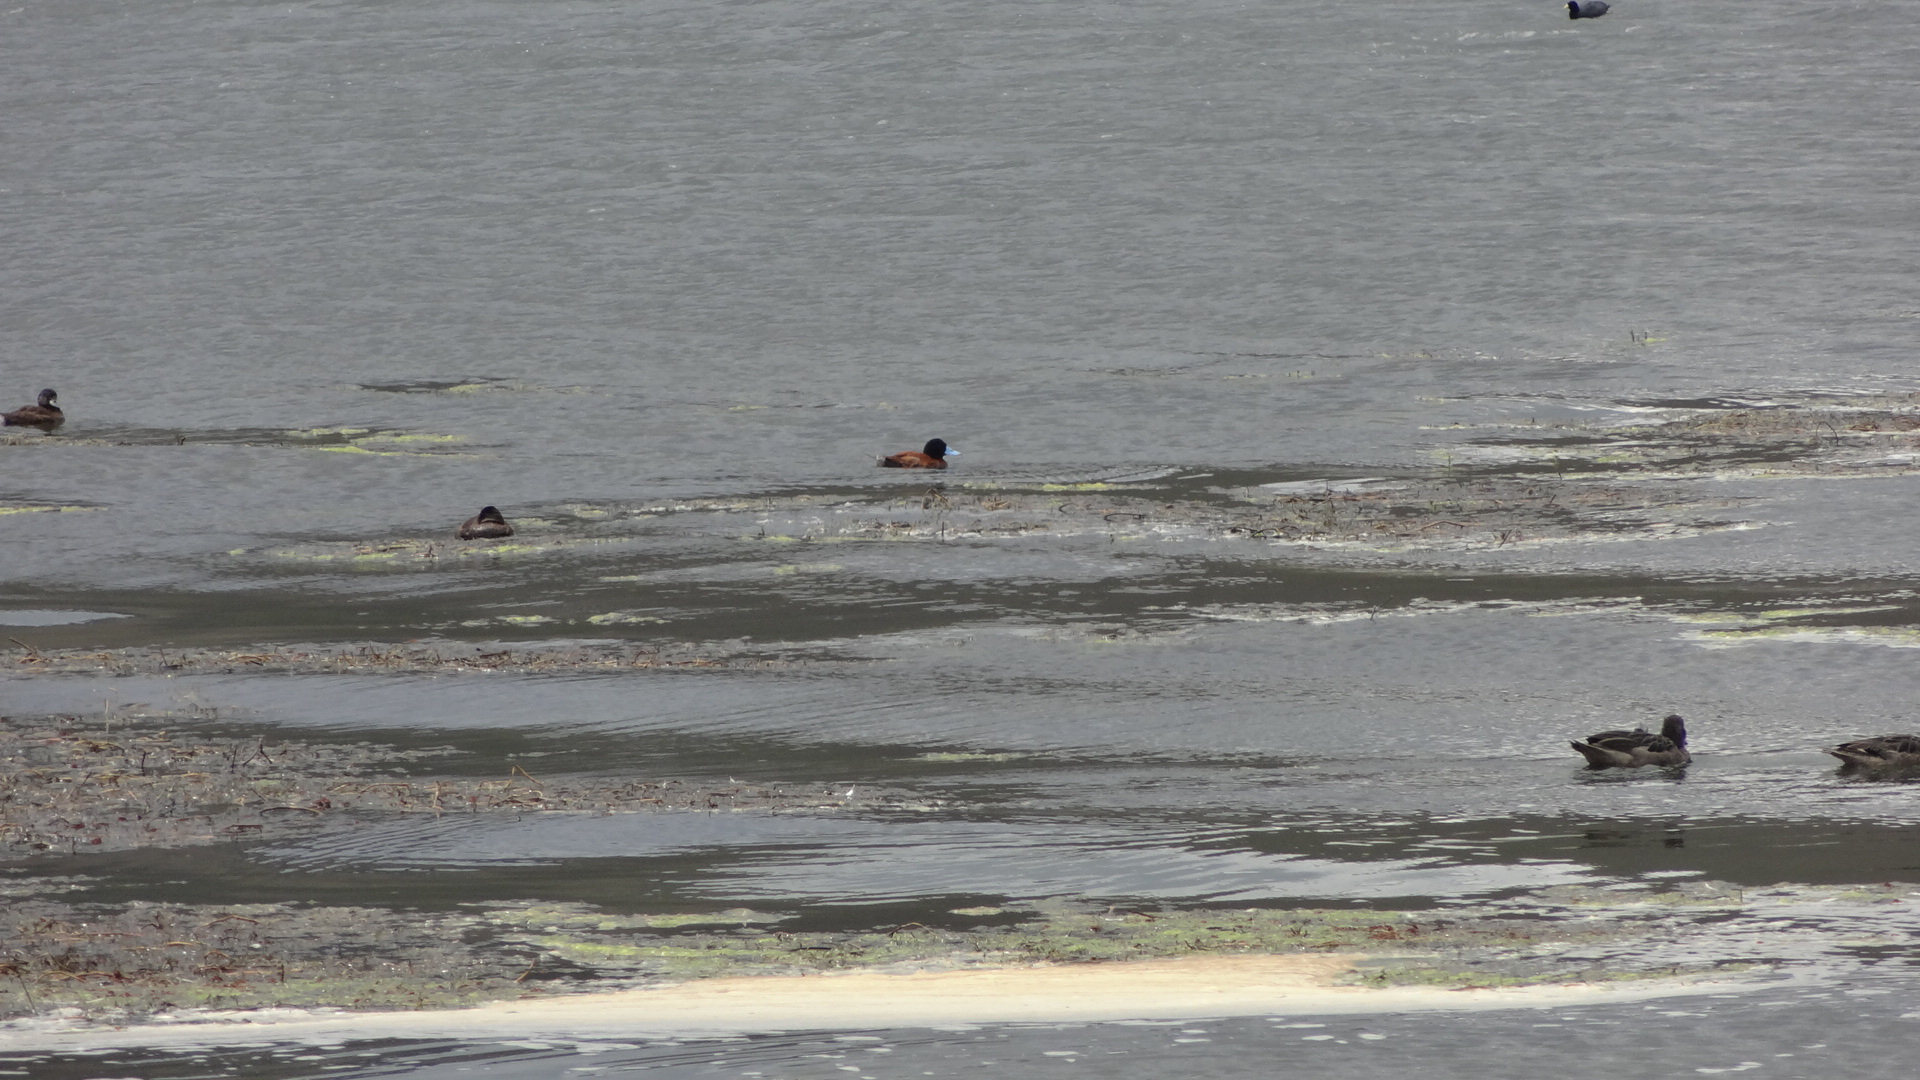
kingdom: Animalia
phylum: Chordata
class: Aves
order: Anseriformes
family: Anatidae
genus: Oxyura
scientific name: Oxyura ferruginea
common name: Andean duck
